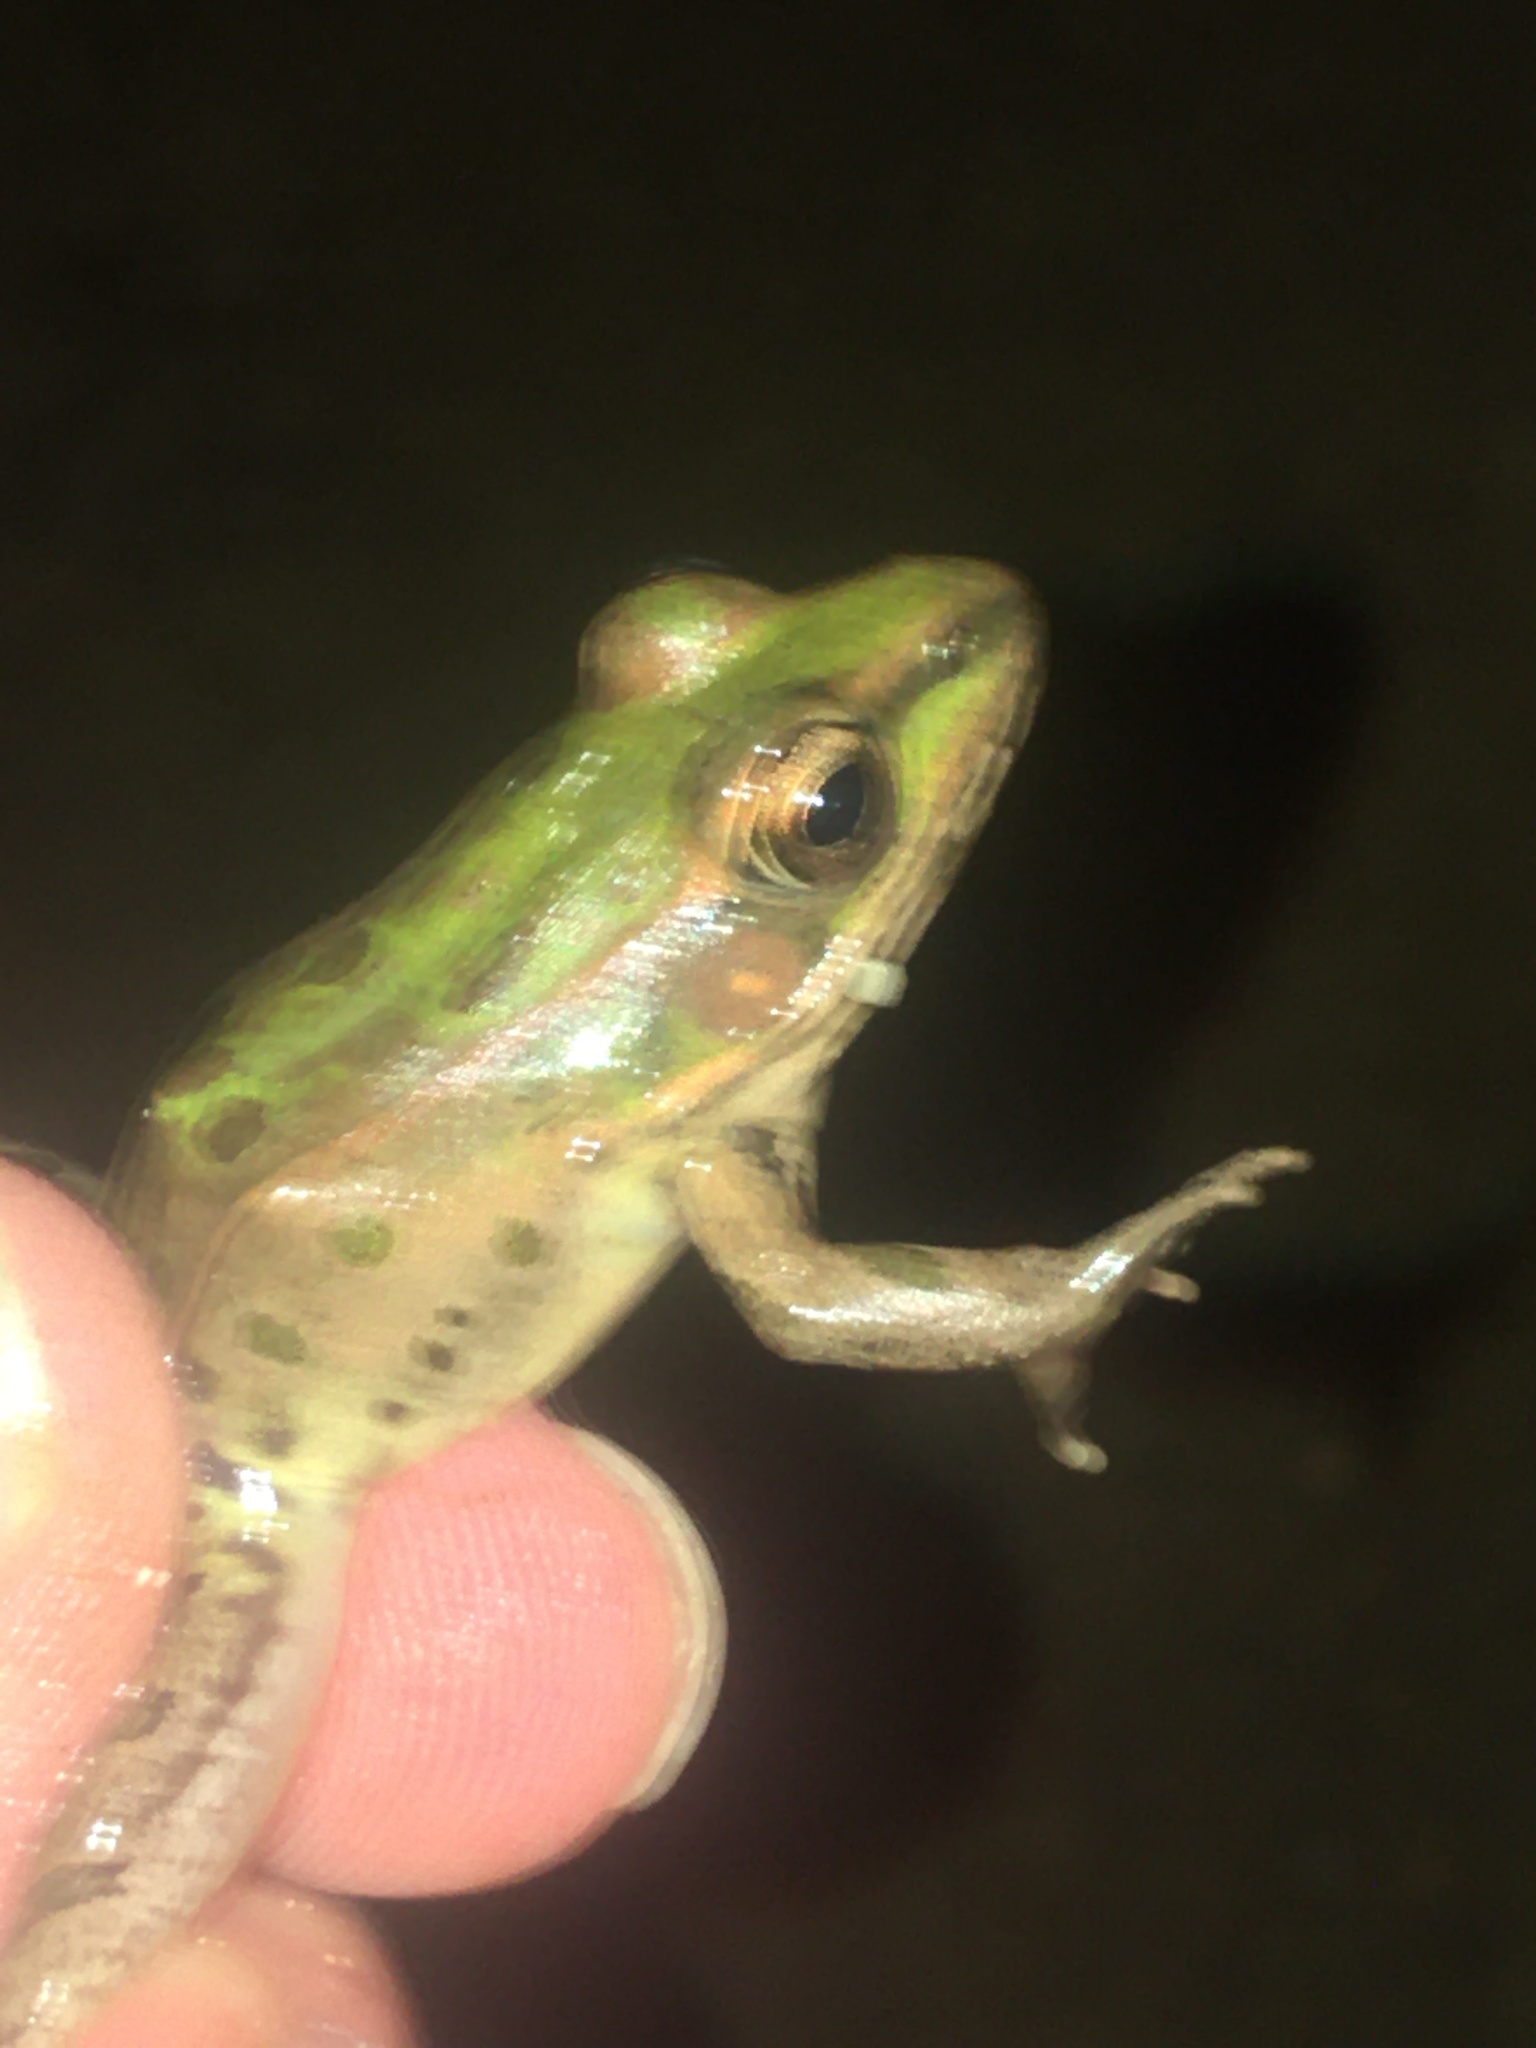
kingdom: Animalia
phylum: Chordata
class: Amphibia
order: Anura
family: Ranidae
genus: Lithobates
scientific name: Lithobates sphenocephalus
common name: Southern leopard frog
